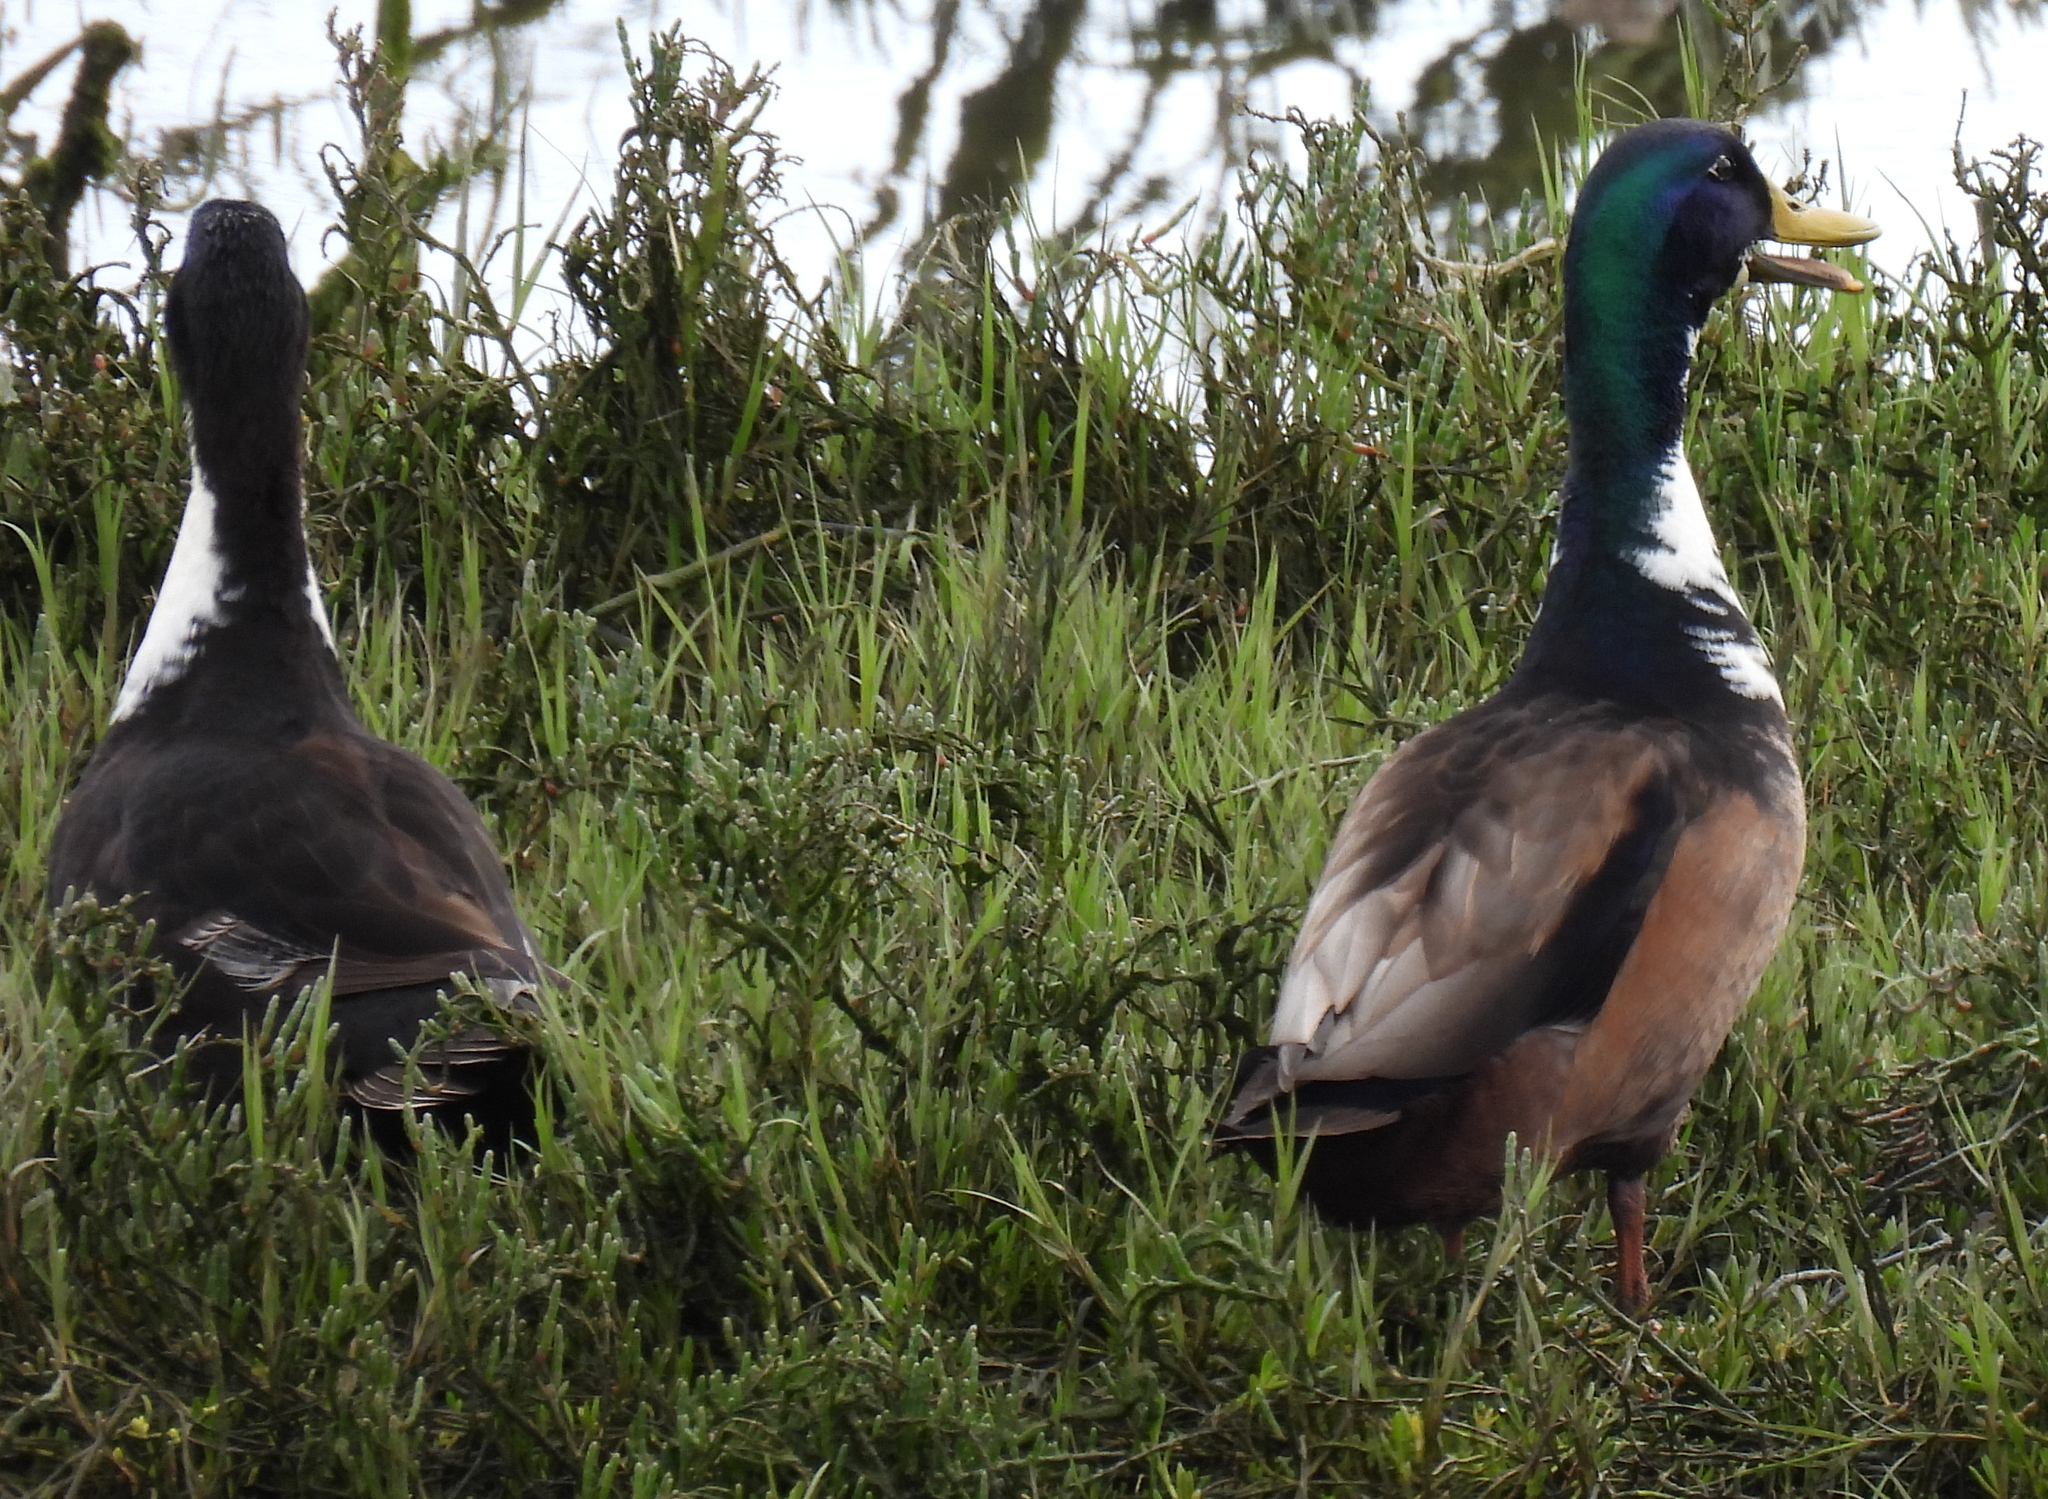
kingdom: Animalia
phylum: Chordata
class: Aves
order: Anseriformes
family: Anatidae
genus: Anas
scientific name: Anas platyrhynchos
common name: Mallard
